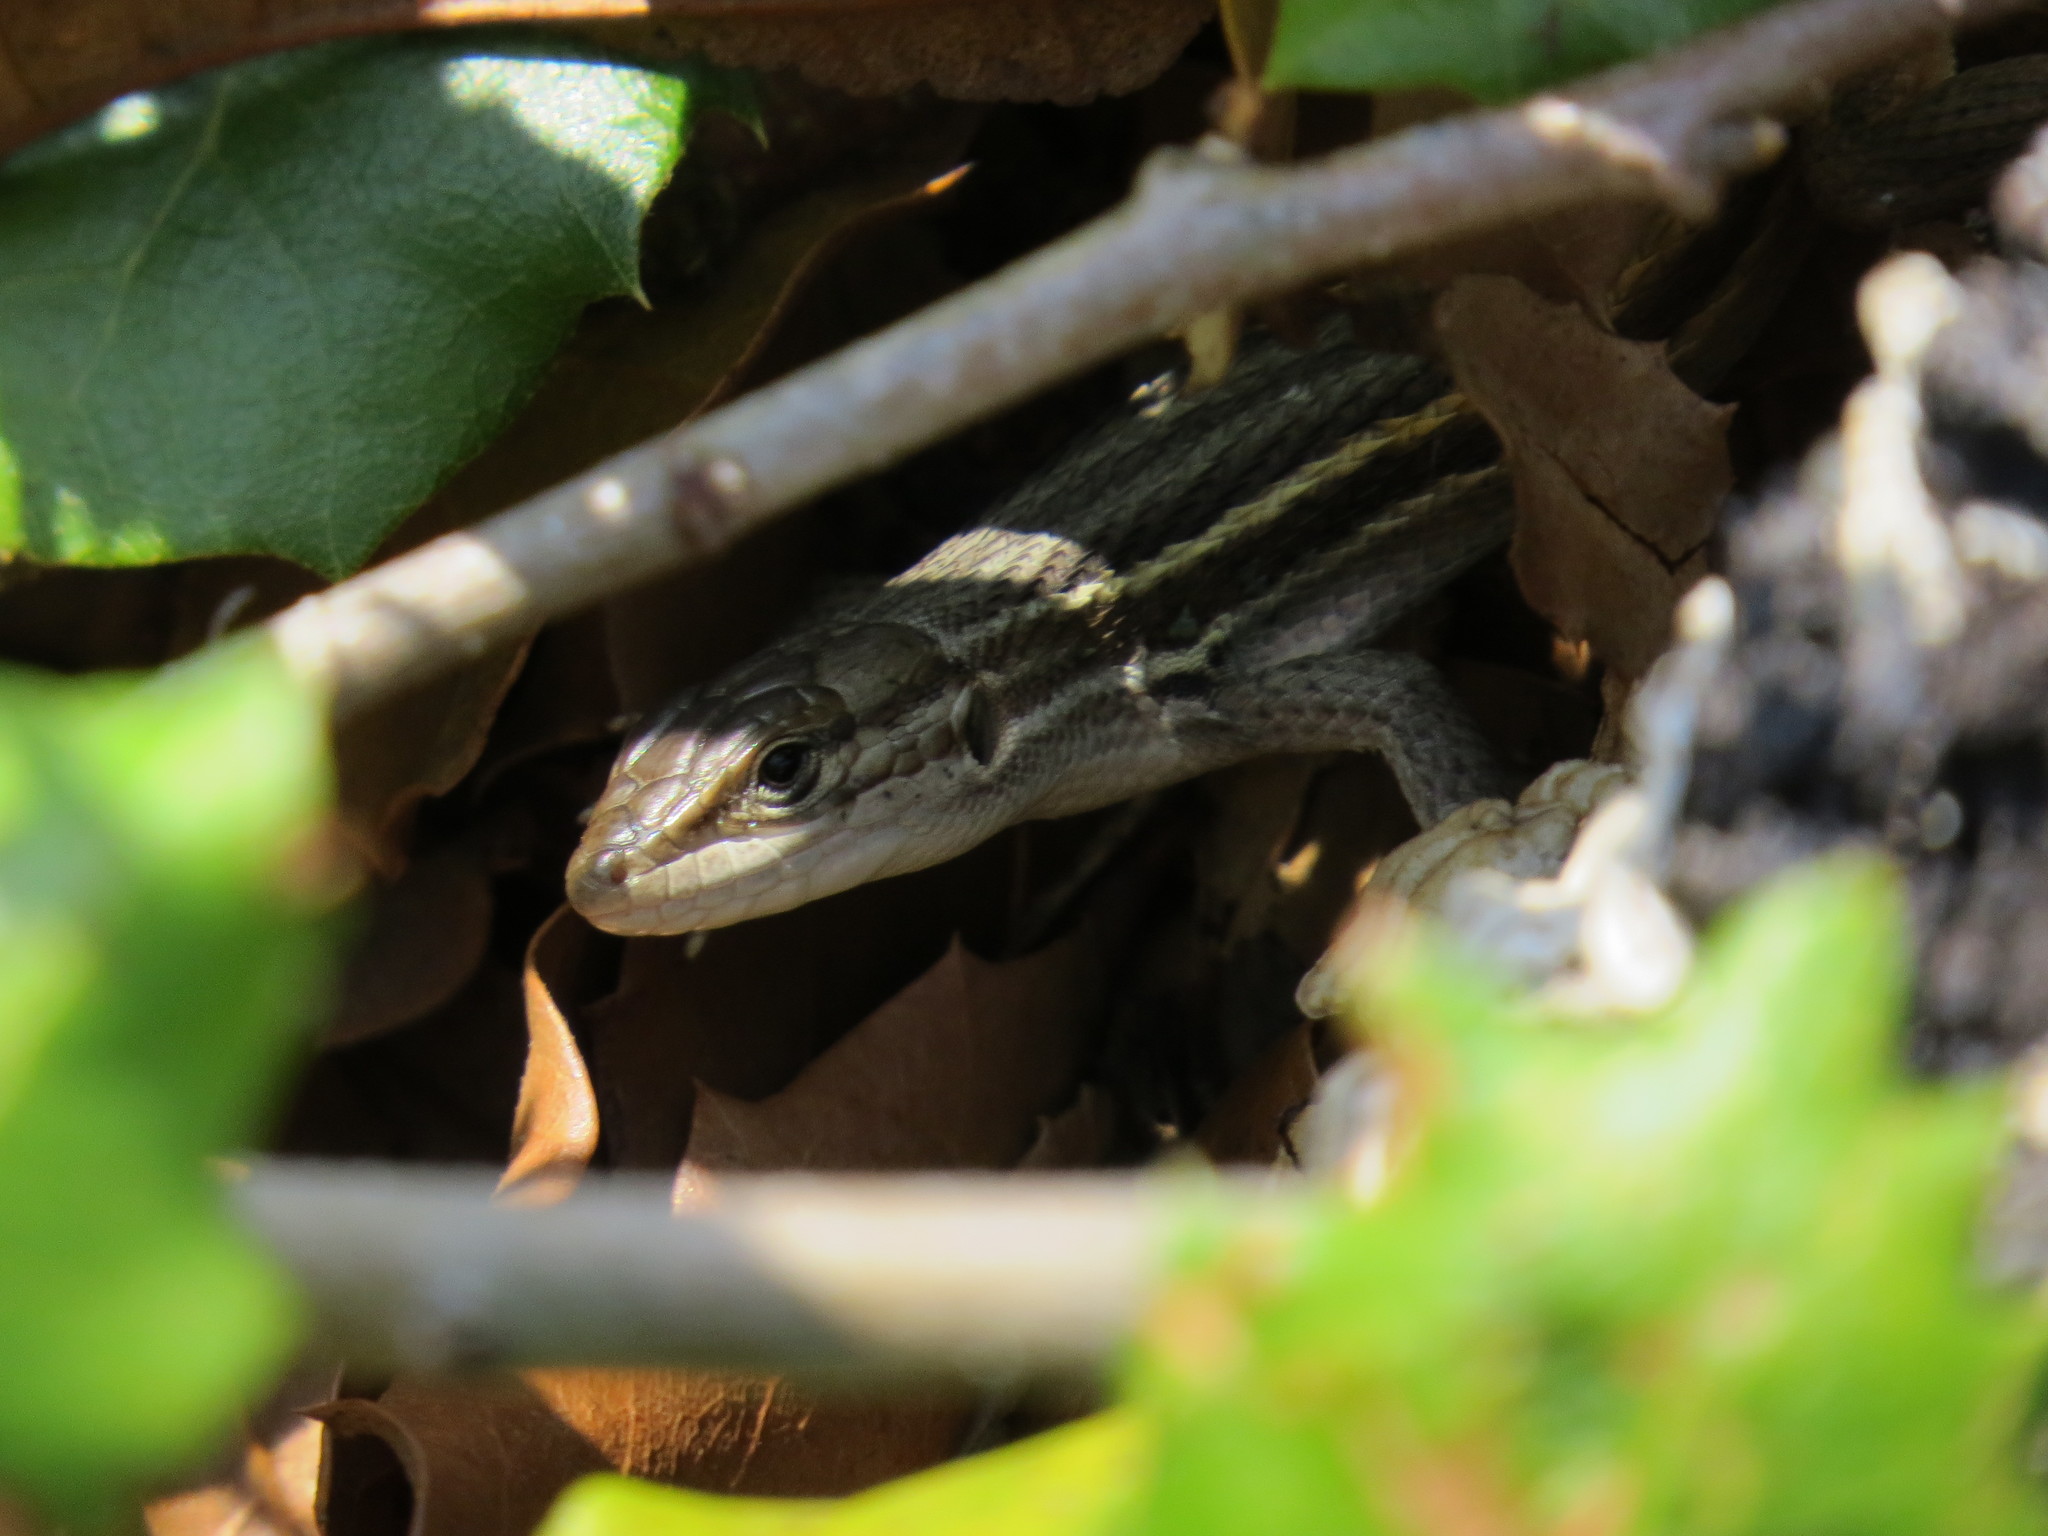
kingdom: Animalia
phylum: Chordata
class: Squamata
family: Lacertidae
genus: Psammodromus
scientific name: Psammodromus algirus
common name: Algerian psammodromus
